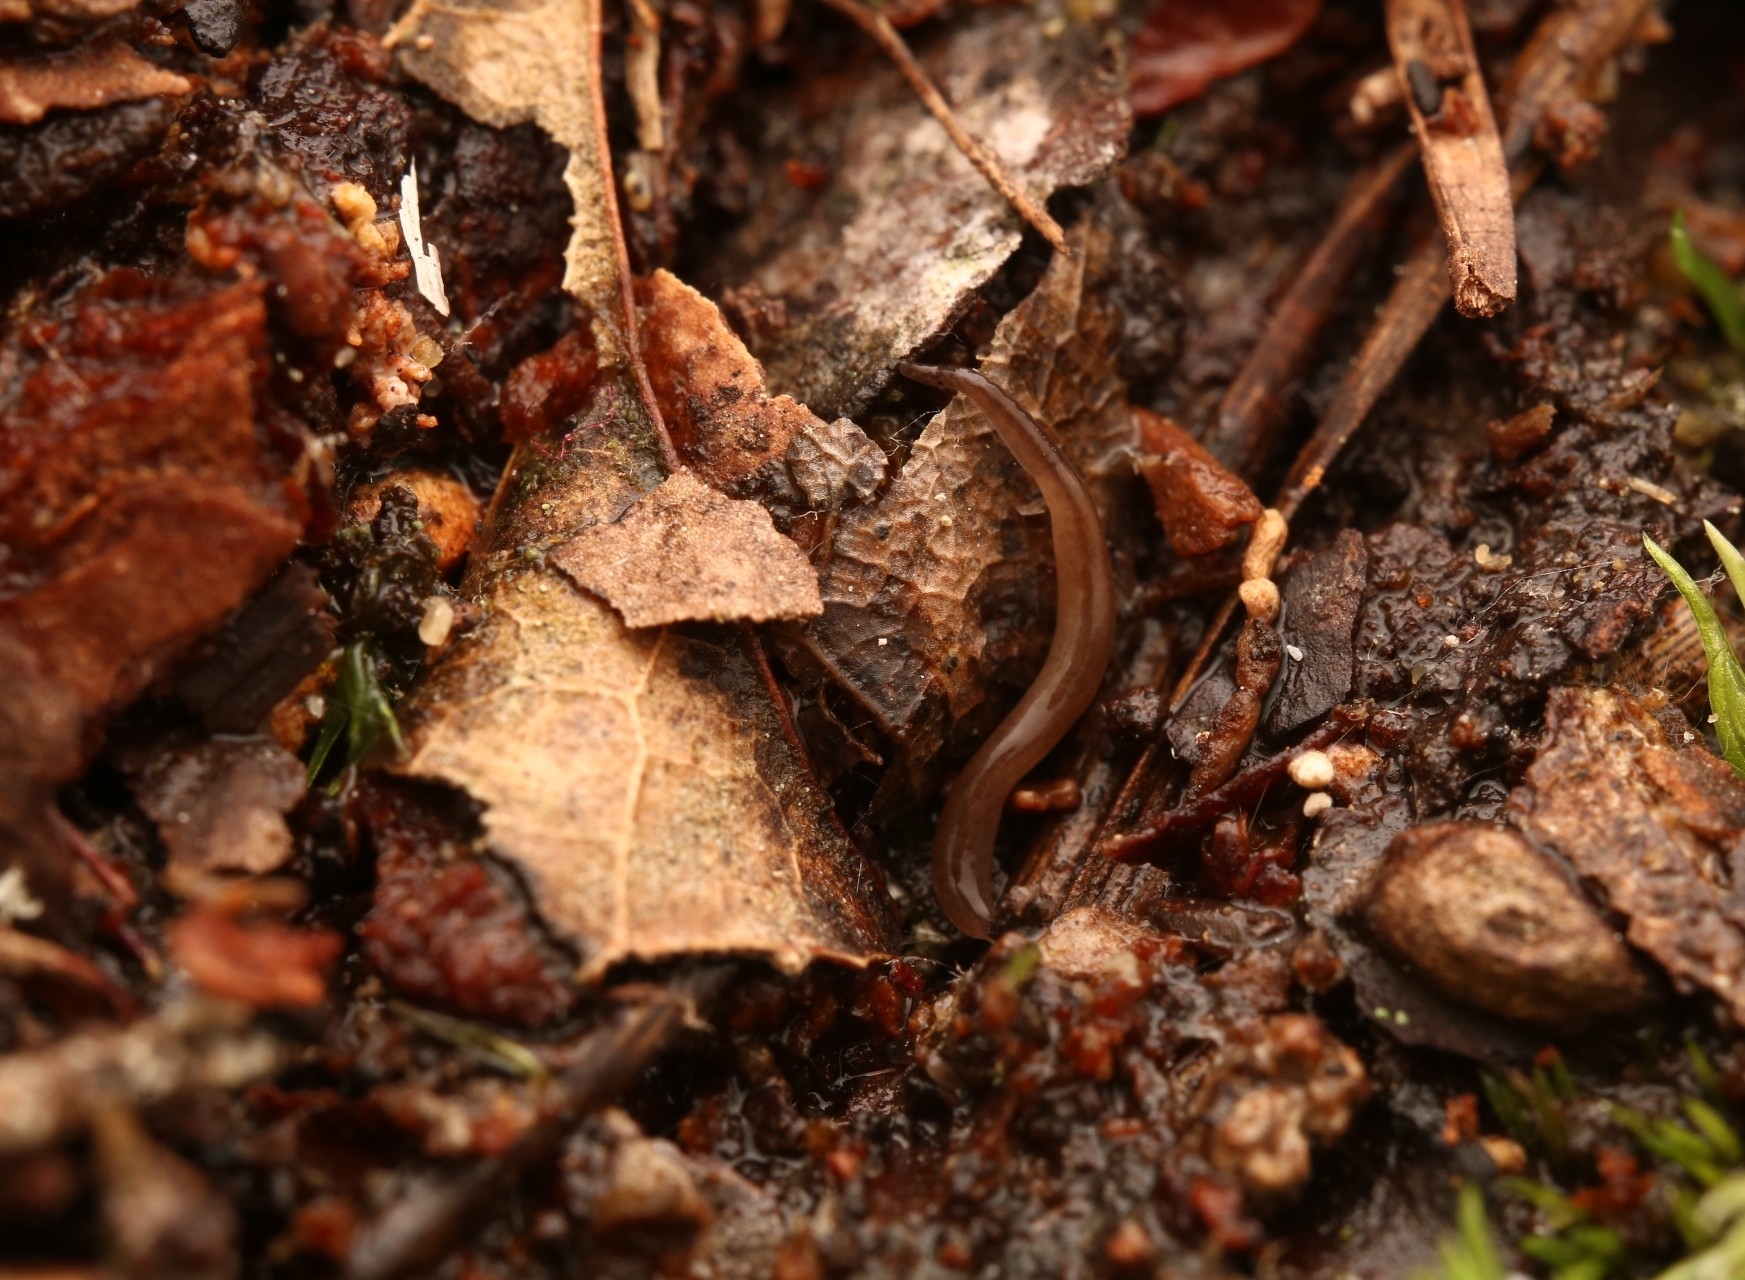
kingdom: Animalia
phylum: Platyhelminthes
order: Tricladida
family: Geoplanidae
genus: Rhynchodemus
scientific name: Rhynchodemus sylvaticus
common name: A flatworm
